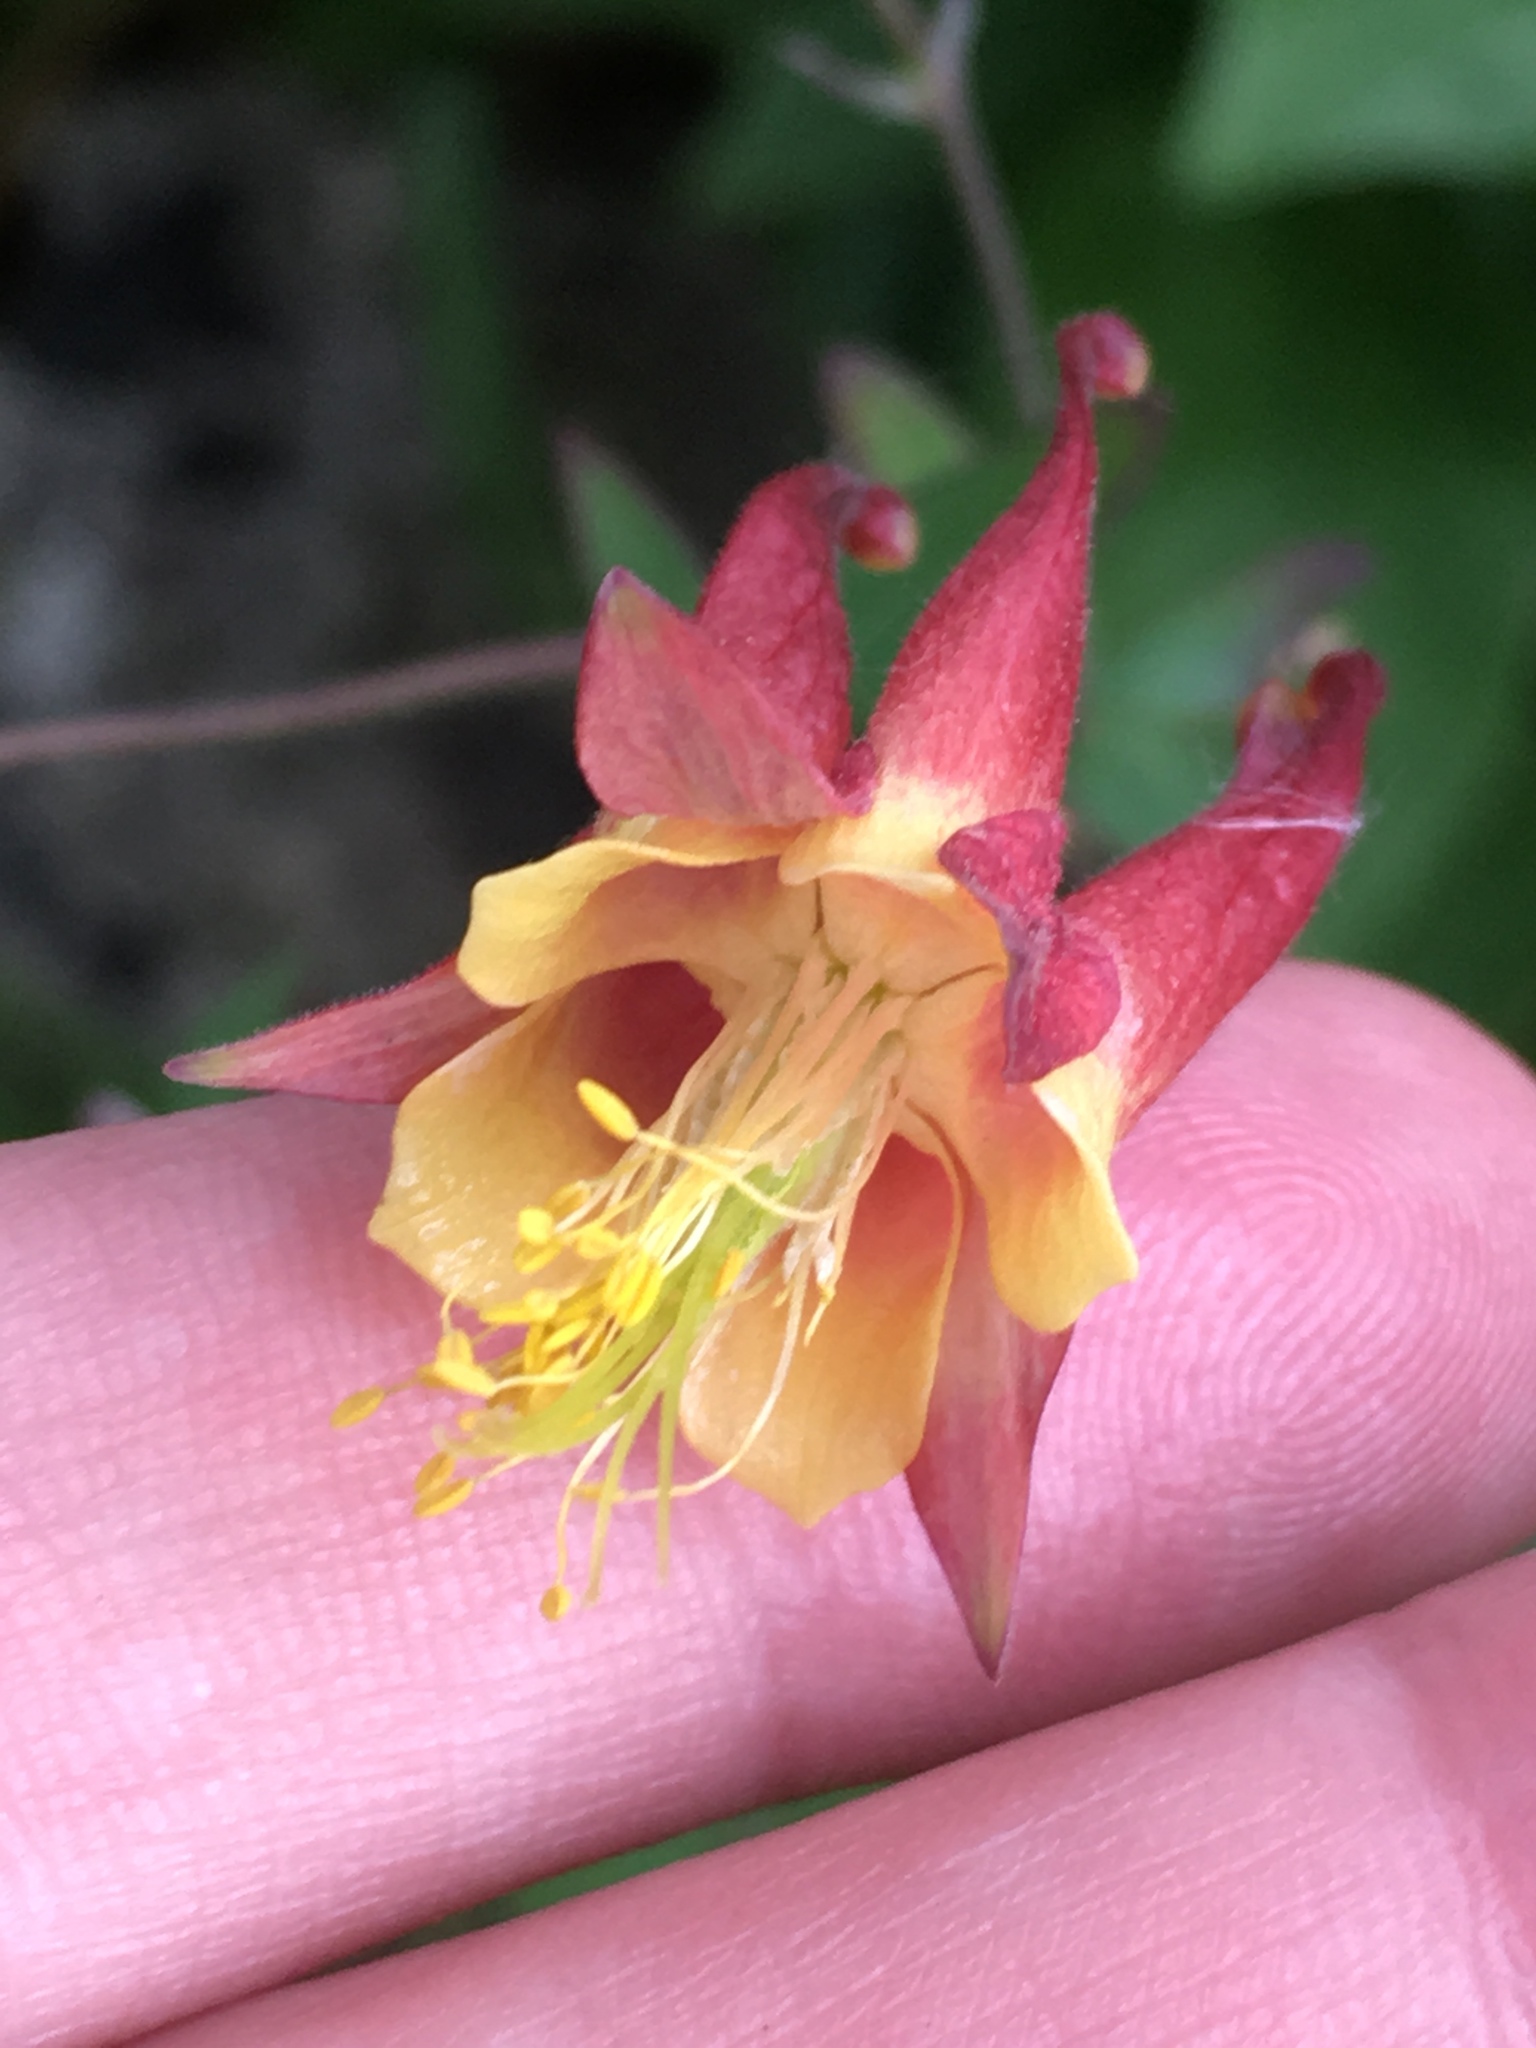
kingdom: Plantae
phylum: Tracheophyta
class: Magnoliopsida
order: Ranunculales
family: Ranunculaceae
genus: Aquilegia
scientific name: Aquilegia canadensis
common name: American columbine
